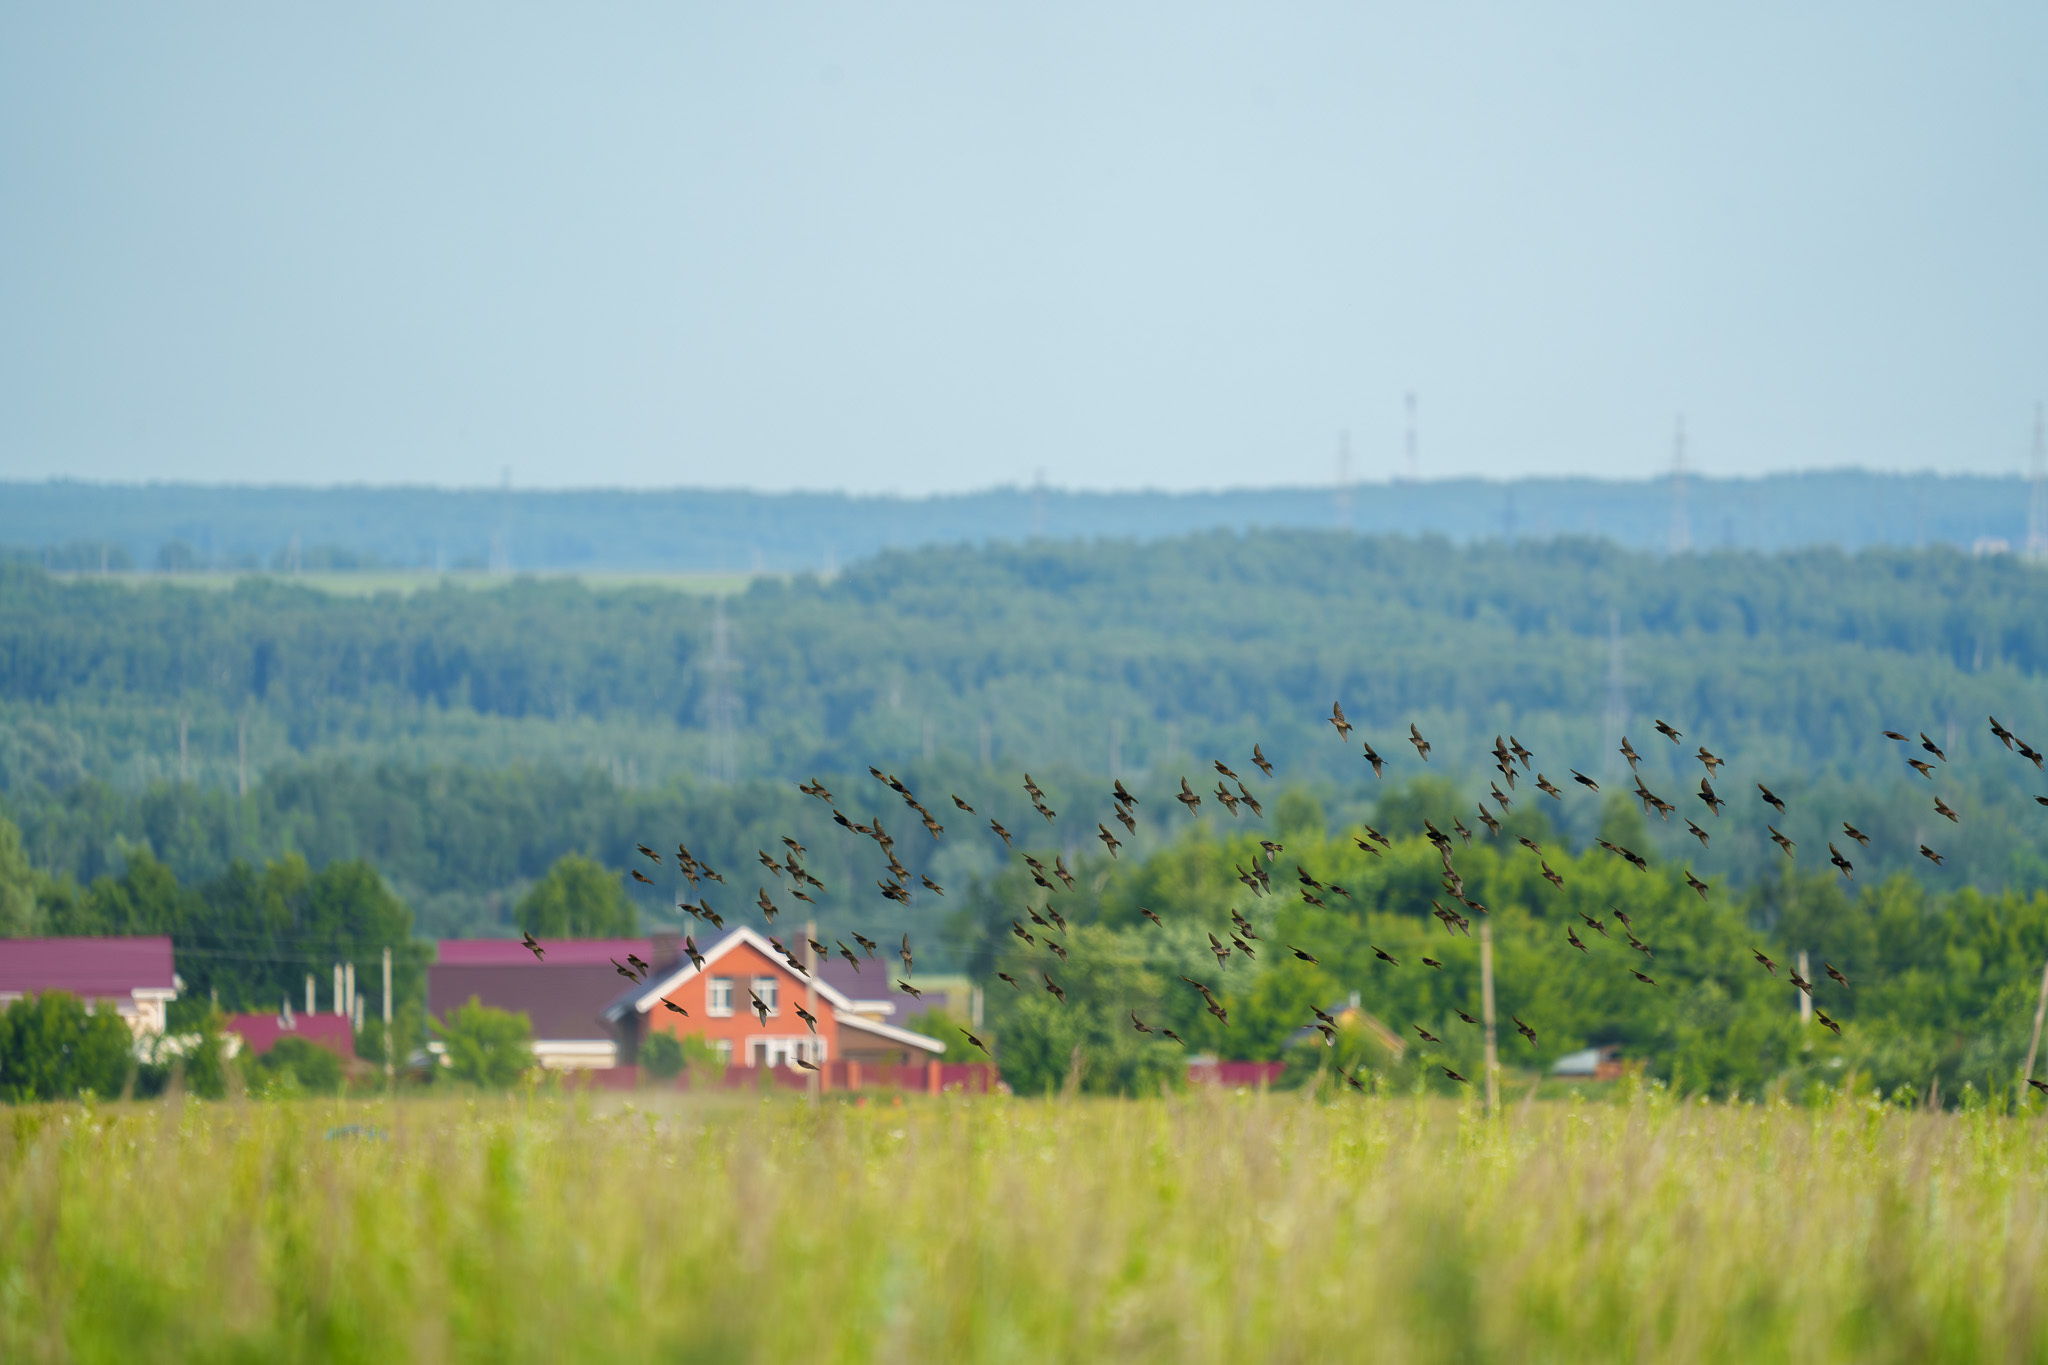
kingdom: Animalia
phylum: Chordata
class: Aves
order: Passeriformes
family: Sturnidae
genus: Sturnus
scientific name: Sturnus vulgaris
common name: Common starling
